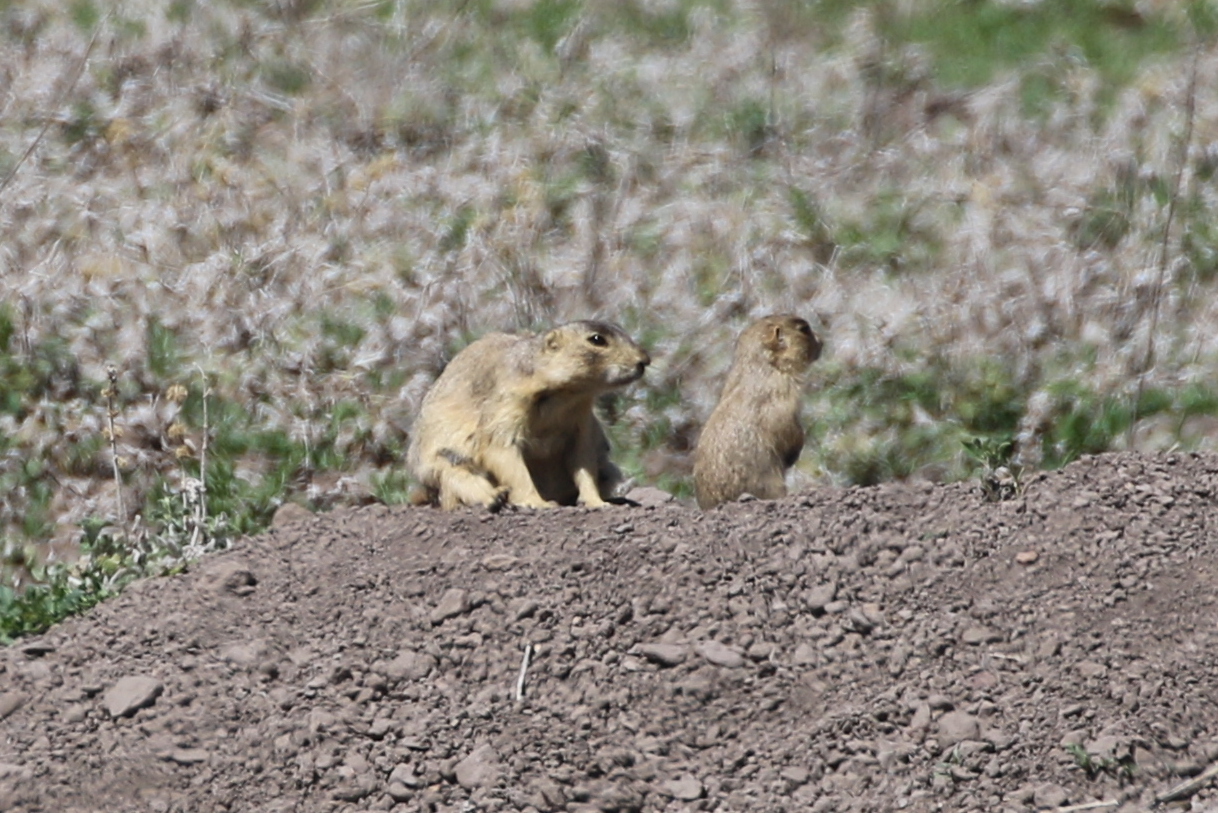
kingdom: Animalia
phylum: Chordata
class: Mammalia
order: Rodentia
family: Sciuridae
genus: Cynomys
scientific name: Cynomys gunnisoni
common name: Gunnison's prairie dog
